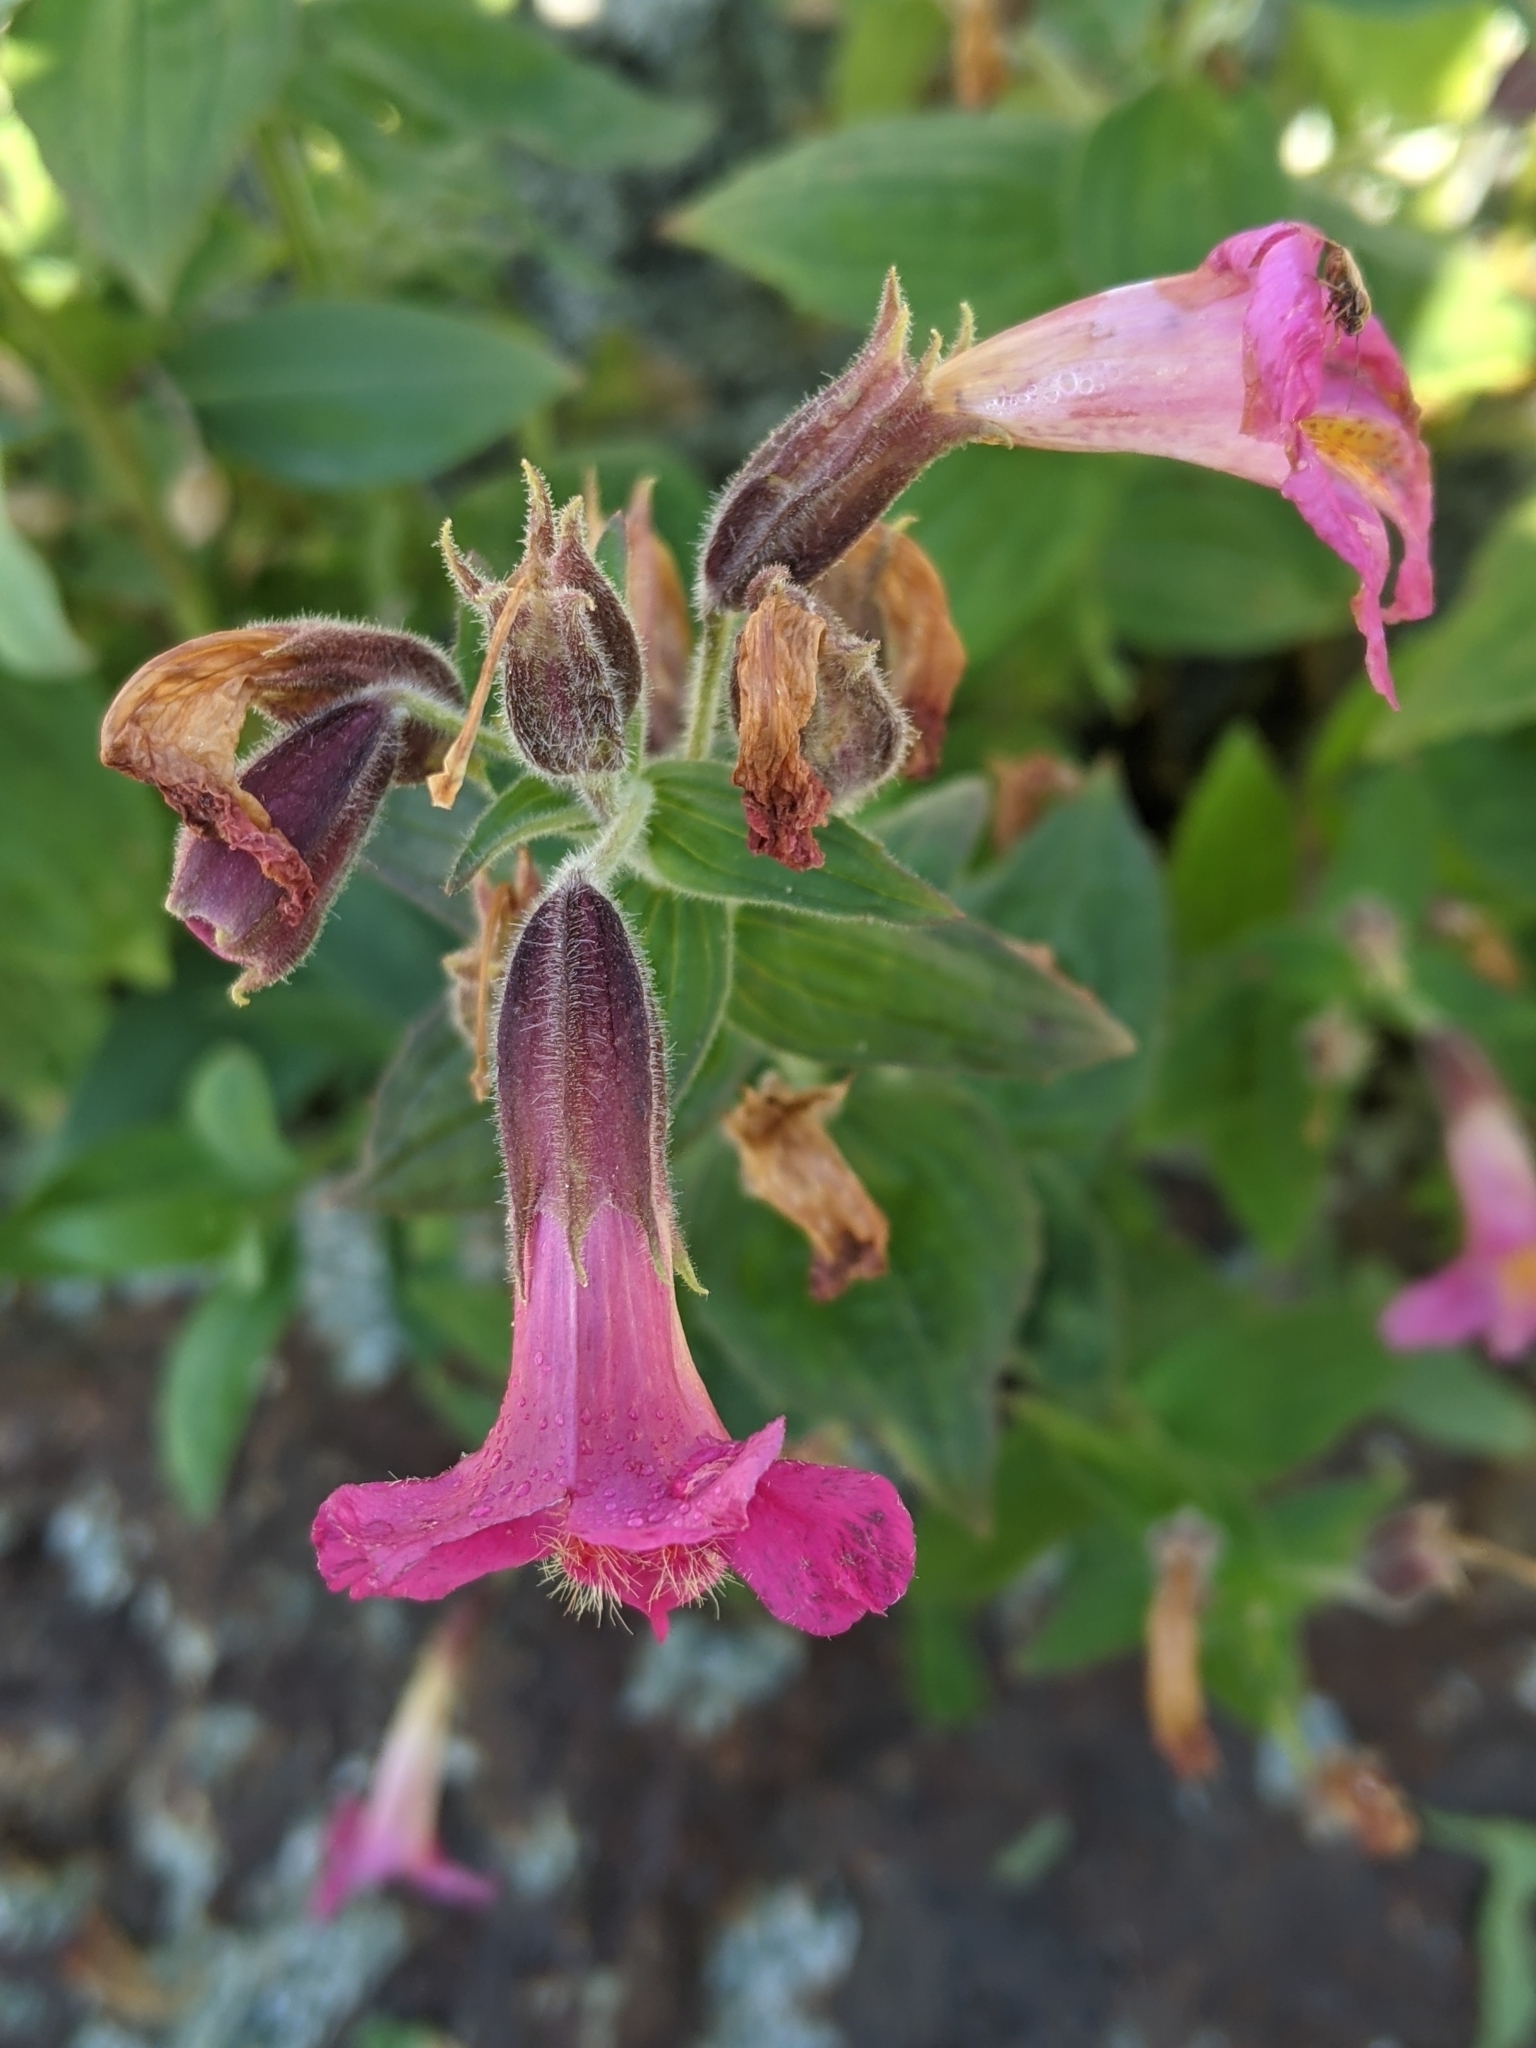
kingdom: Plantae
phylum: Tracheophyta
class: Magnoliopsida
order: Lamiales
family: Phrymaceae
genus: Erythranthe
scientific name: Erythranthe lewisii
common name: Lewis's monkey-flower
